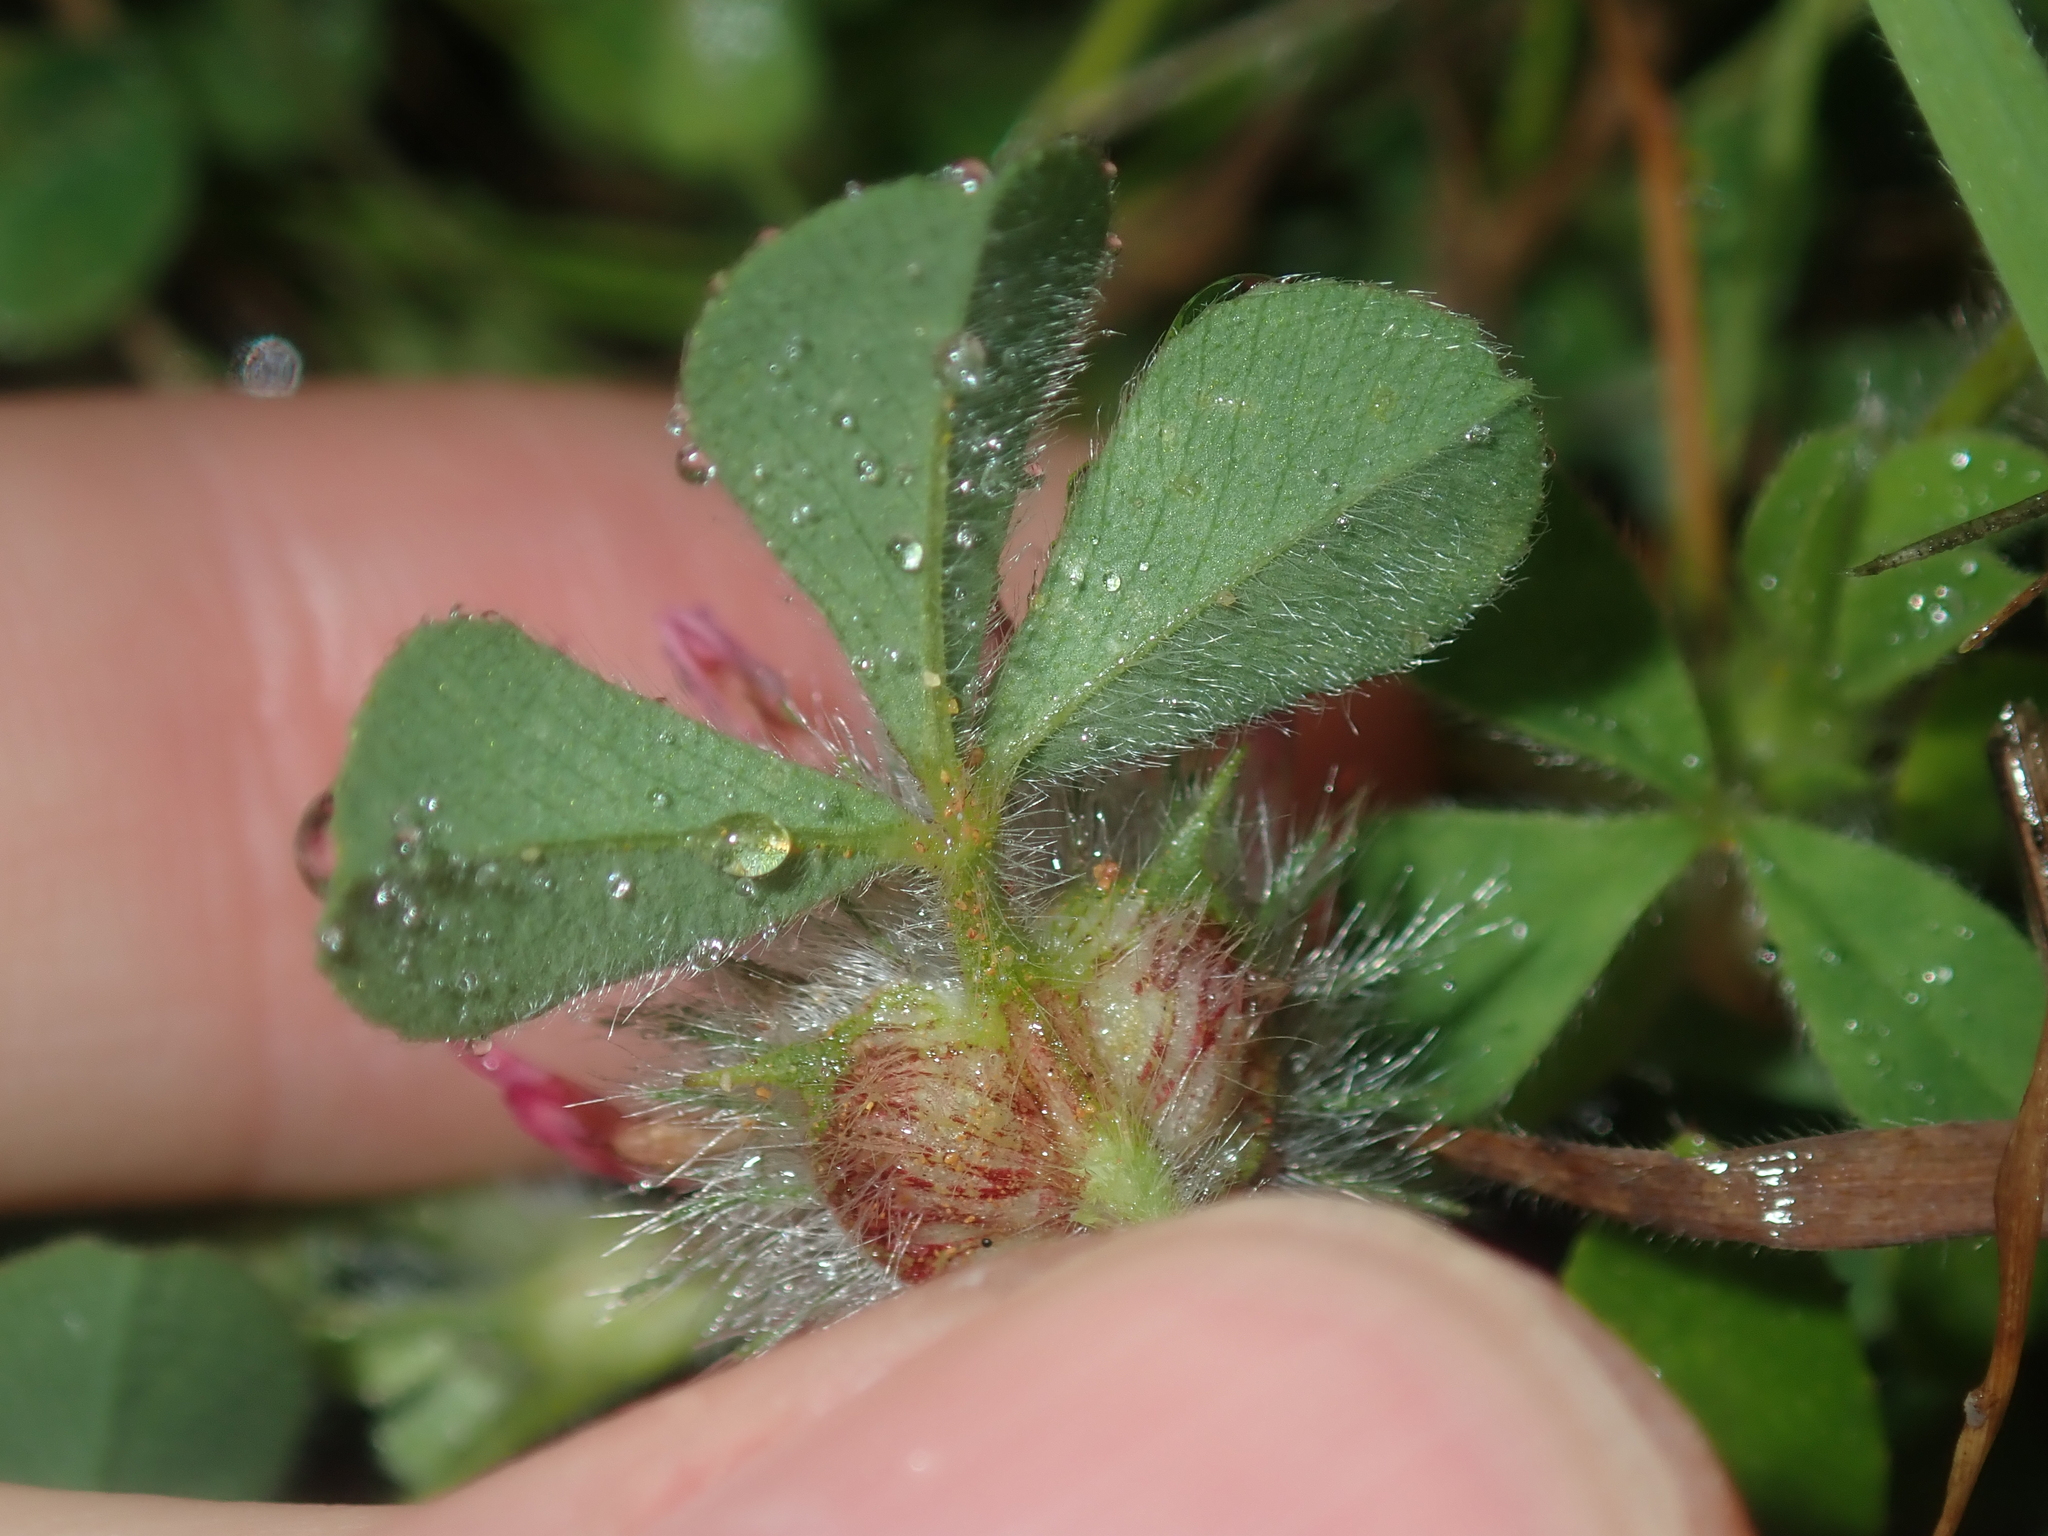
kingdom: Plantae
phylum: Tracheophyta
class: Magnoliopsida
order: Fabales
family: Fabaceae
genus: Trifolium
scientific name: Trifolium hirtum
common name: Rose clover
